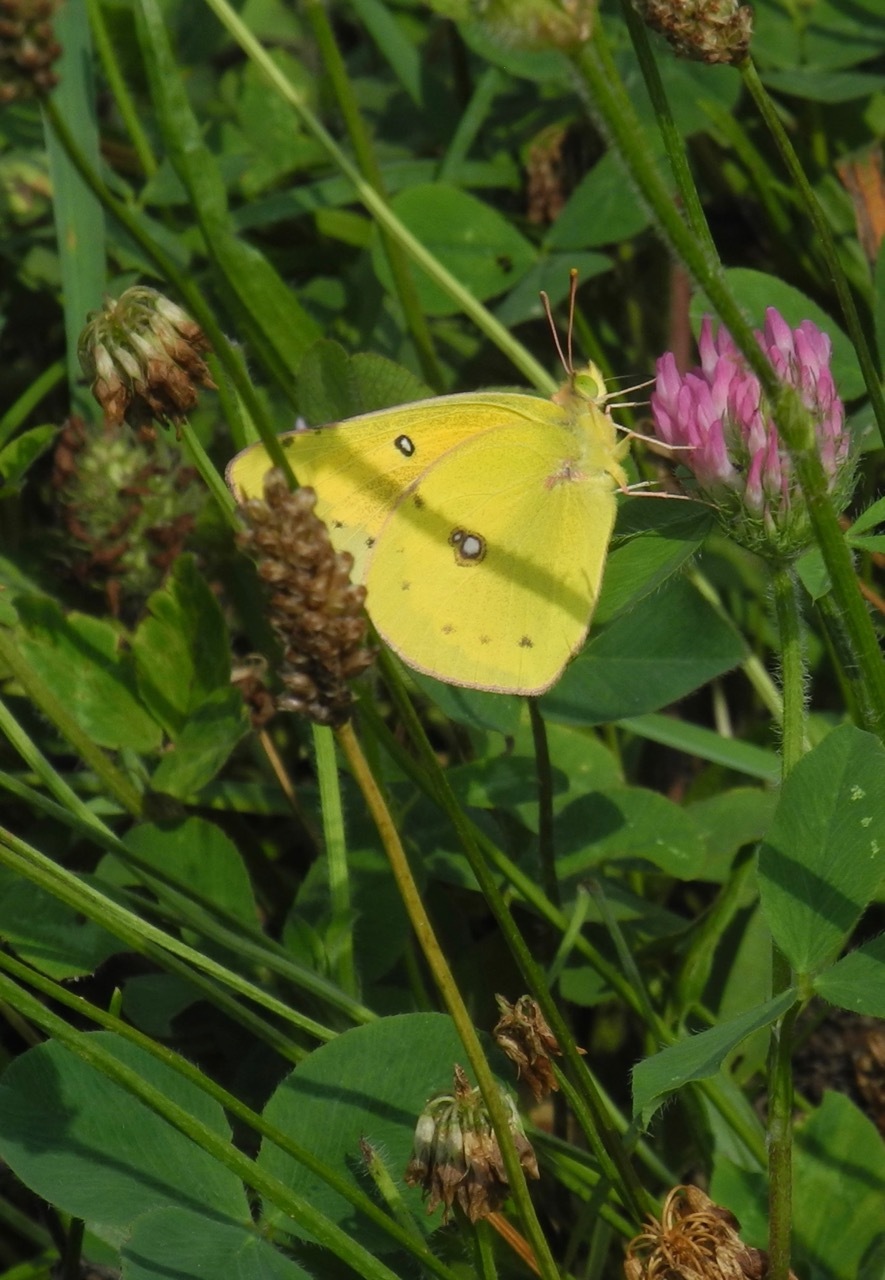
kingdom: Animalia
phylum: Arthropoda
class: Insecta
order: Lepidoptera
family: Pieridae
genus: Colias
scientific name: Colias eurytheme
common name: Alfalfa butterfly
